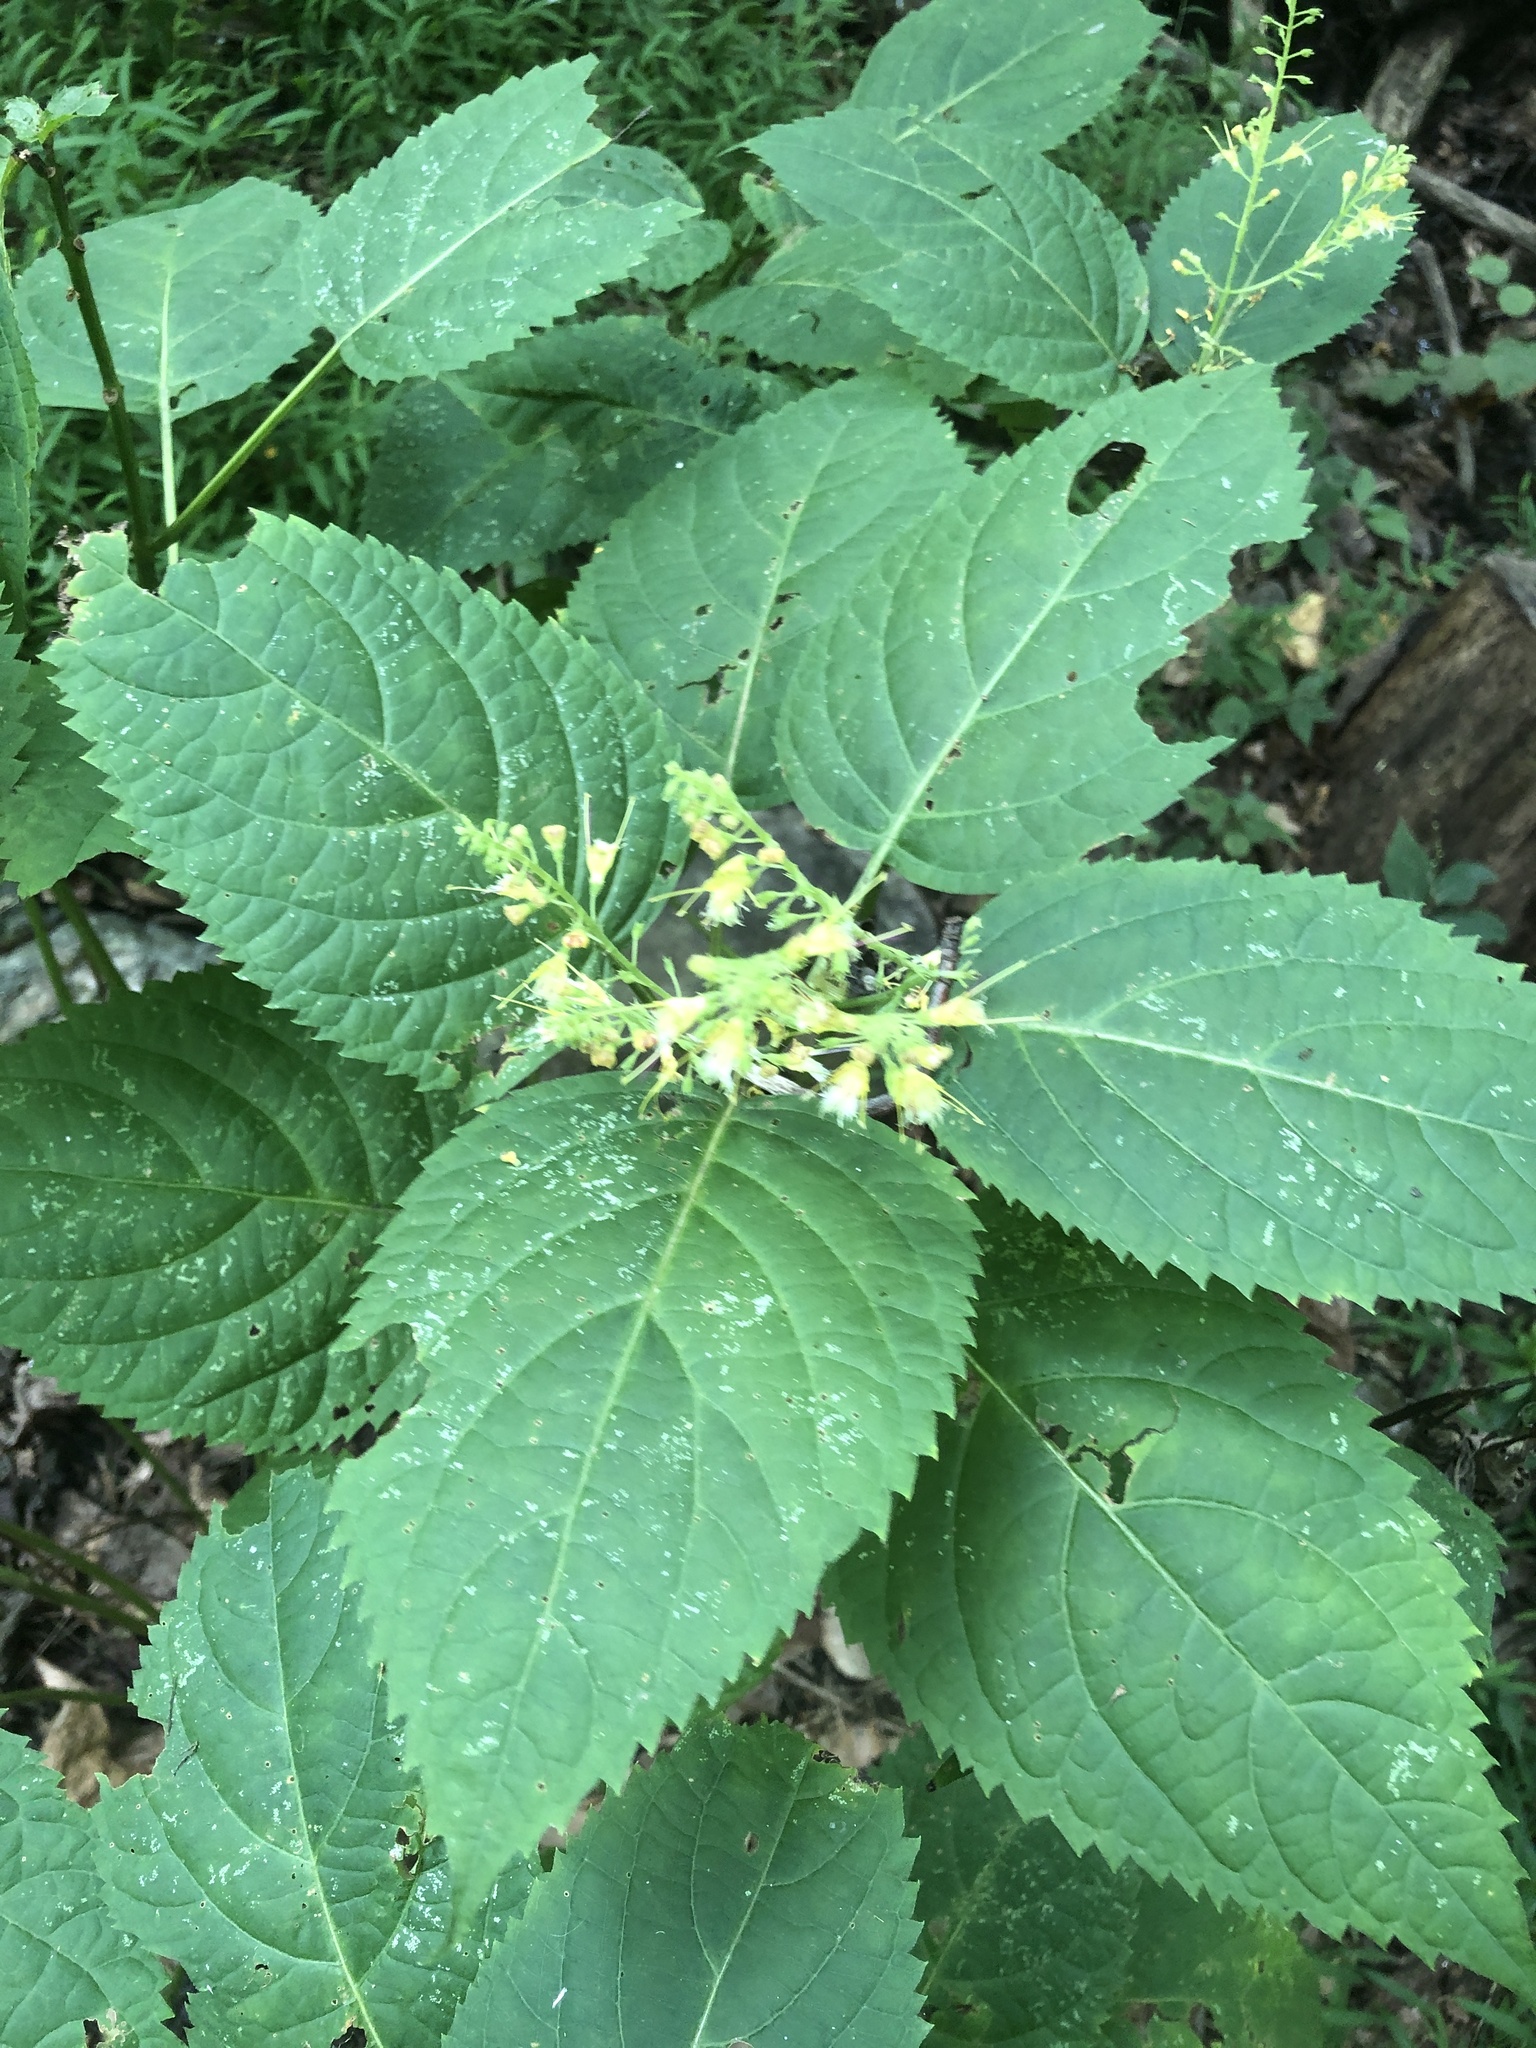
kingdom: Plantae
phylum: Tracheophyta
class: Magnoliopsida
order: Lamiales
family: Lamiaceae
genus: Collinsonia
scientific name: Collinsonia canadensis
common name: Northern horsebalm
